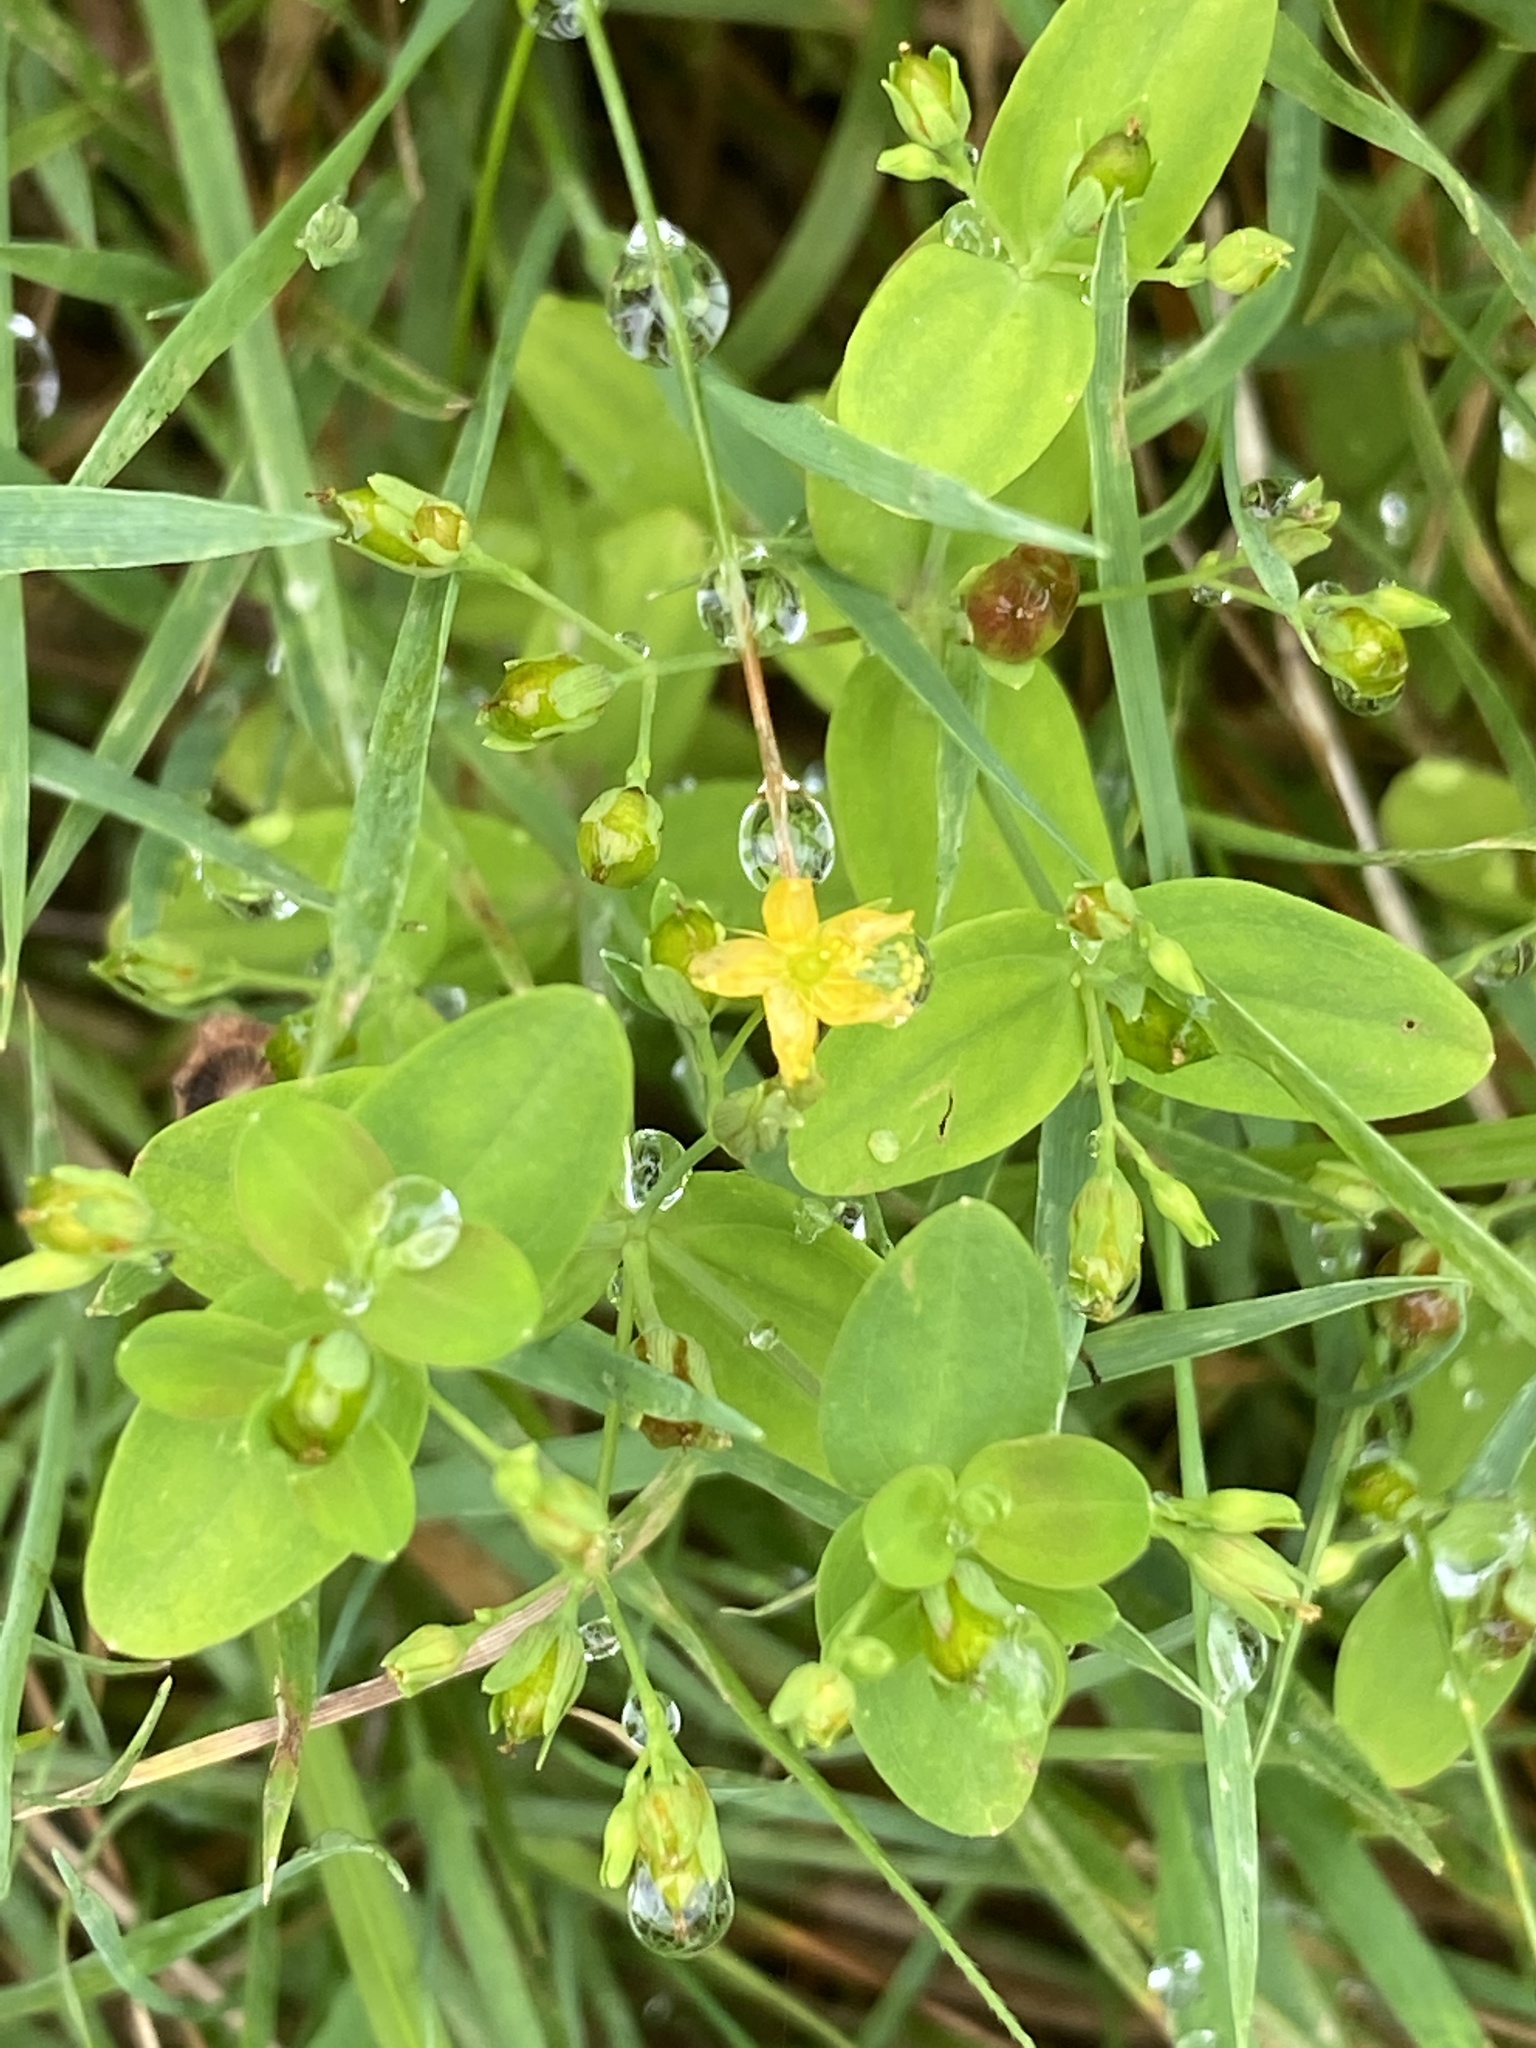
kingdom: Plantae
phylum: Tracheophyta
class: Magnoliopsida
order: Malpighiales
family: Hypericaceae
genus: Hypericum
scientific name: Hypericum mutilum
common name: Dwarf st. john's-wort
